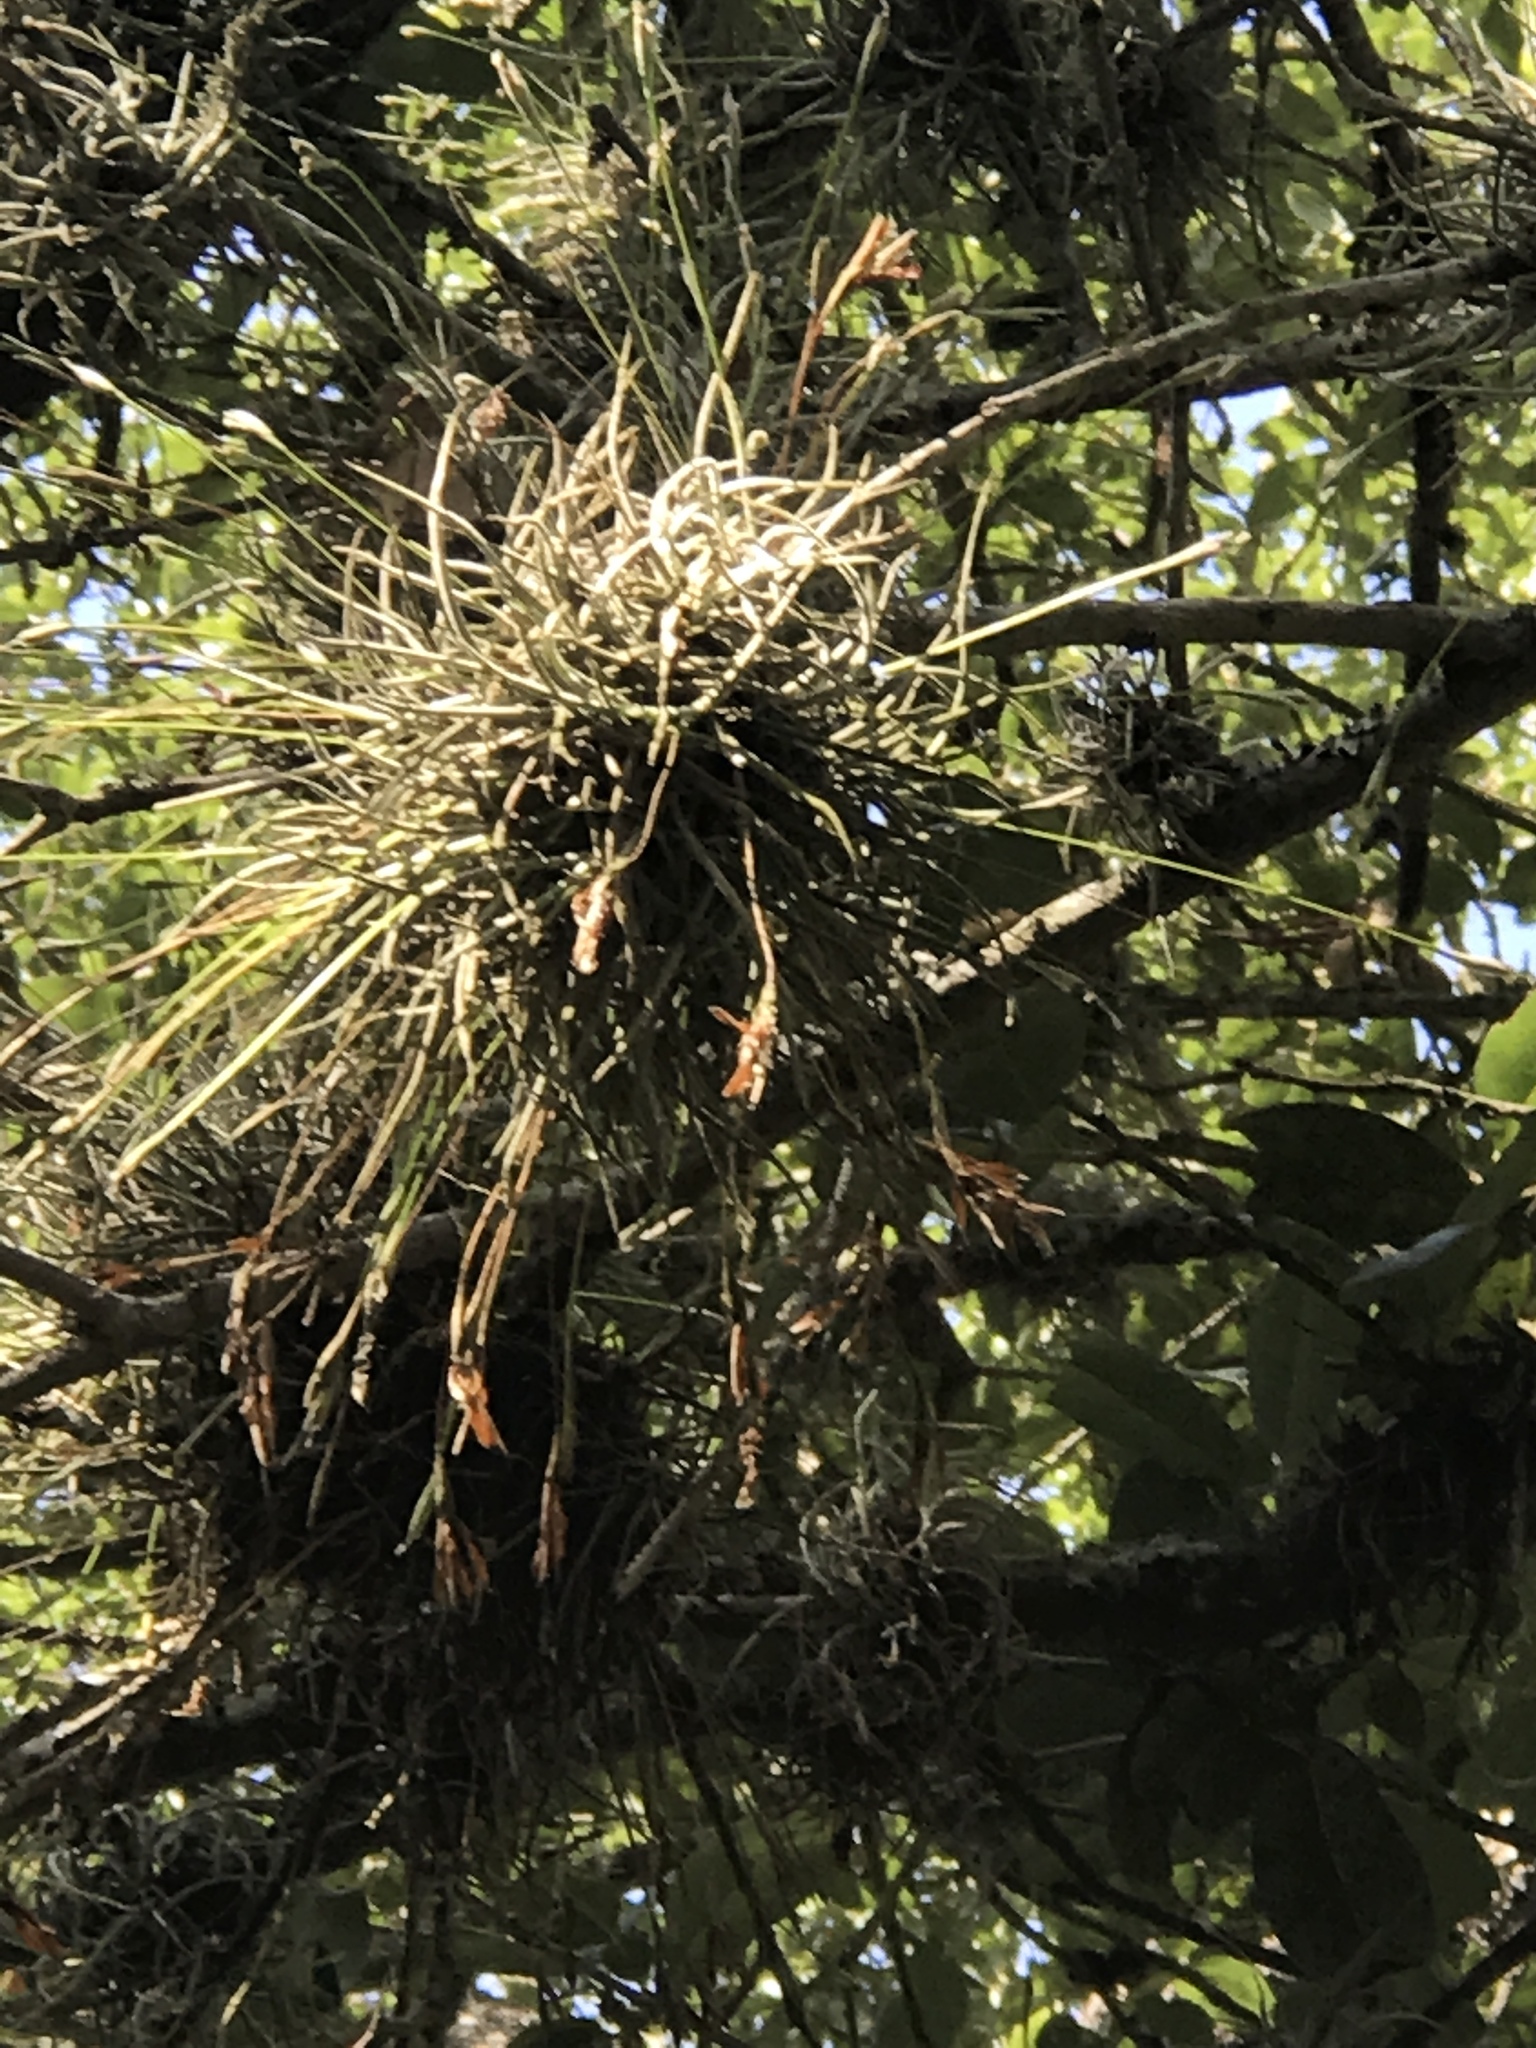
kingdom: Plantae
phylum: Tracheophyta
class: Liliopsida
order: Poales
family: Bromeliaceae
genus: Tillandsia
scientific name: Tillandsia recurvata
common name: Small ballmoss
